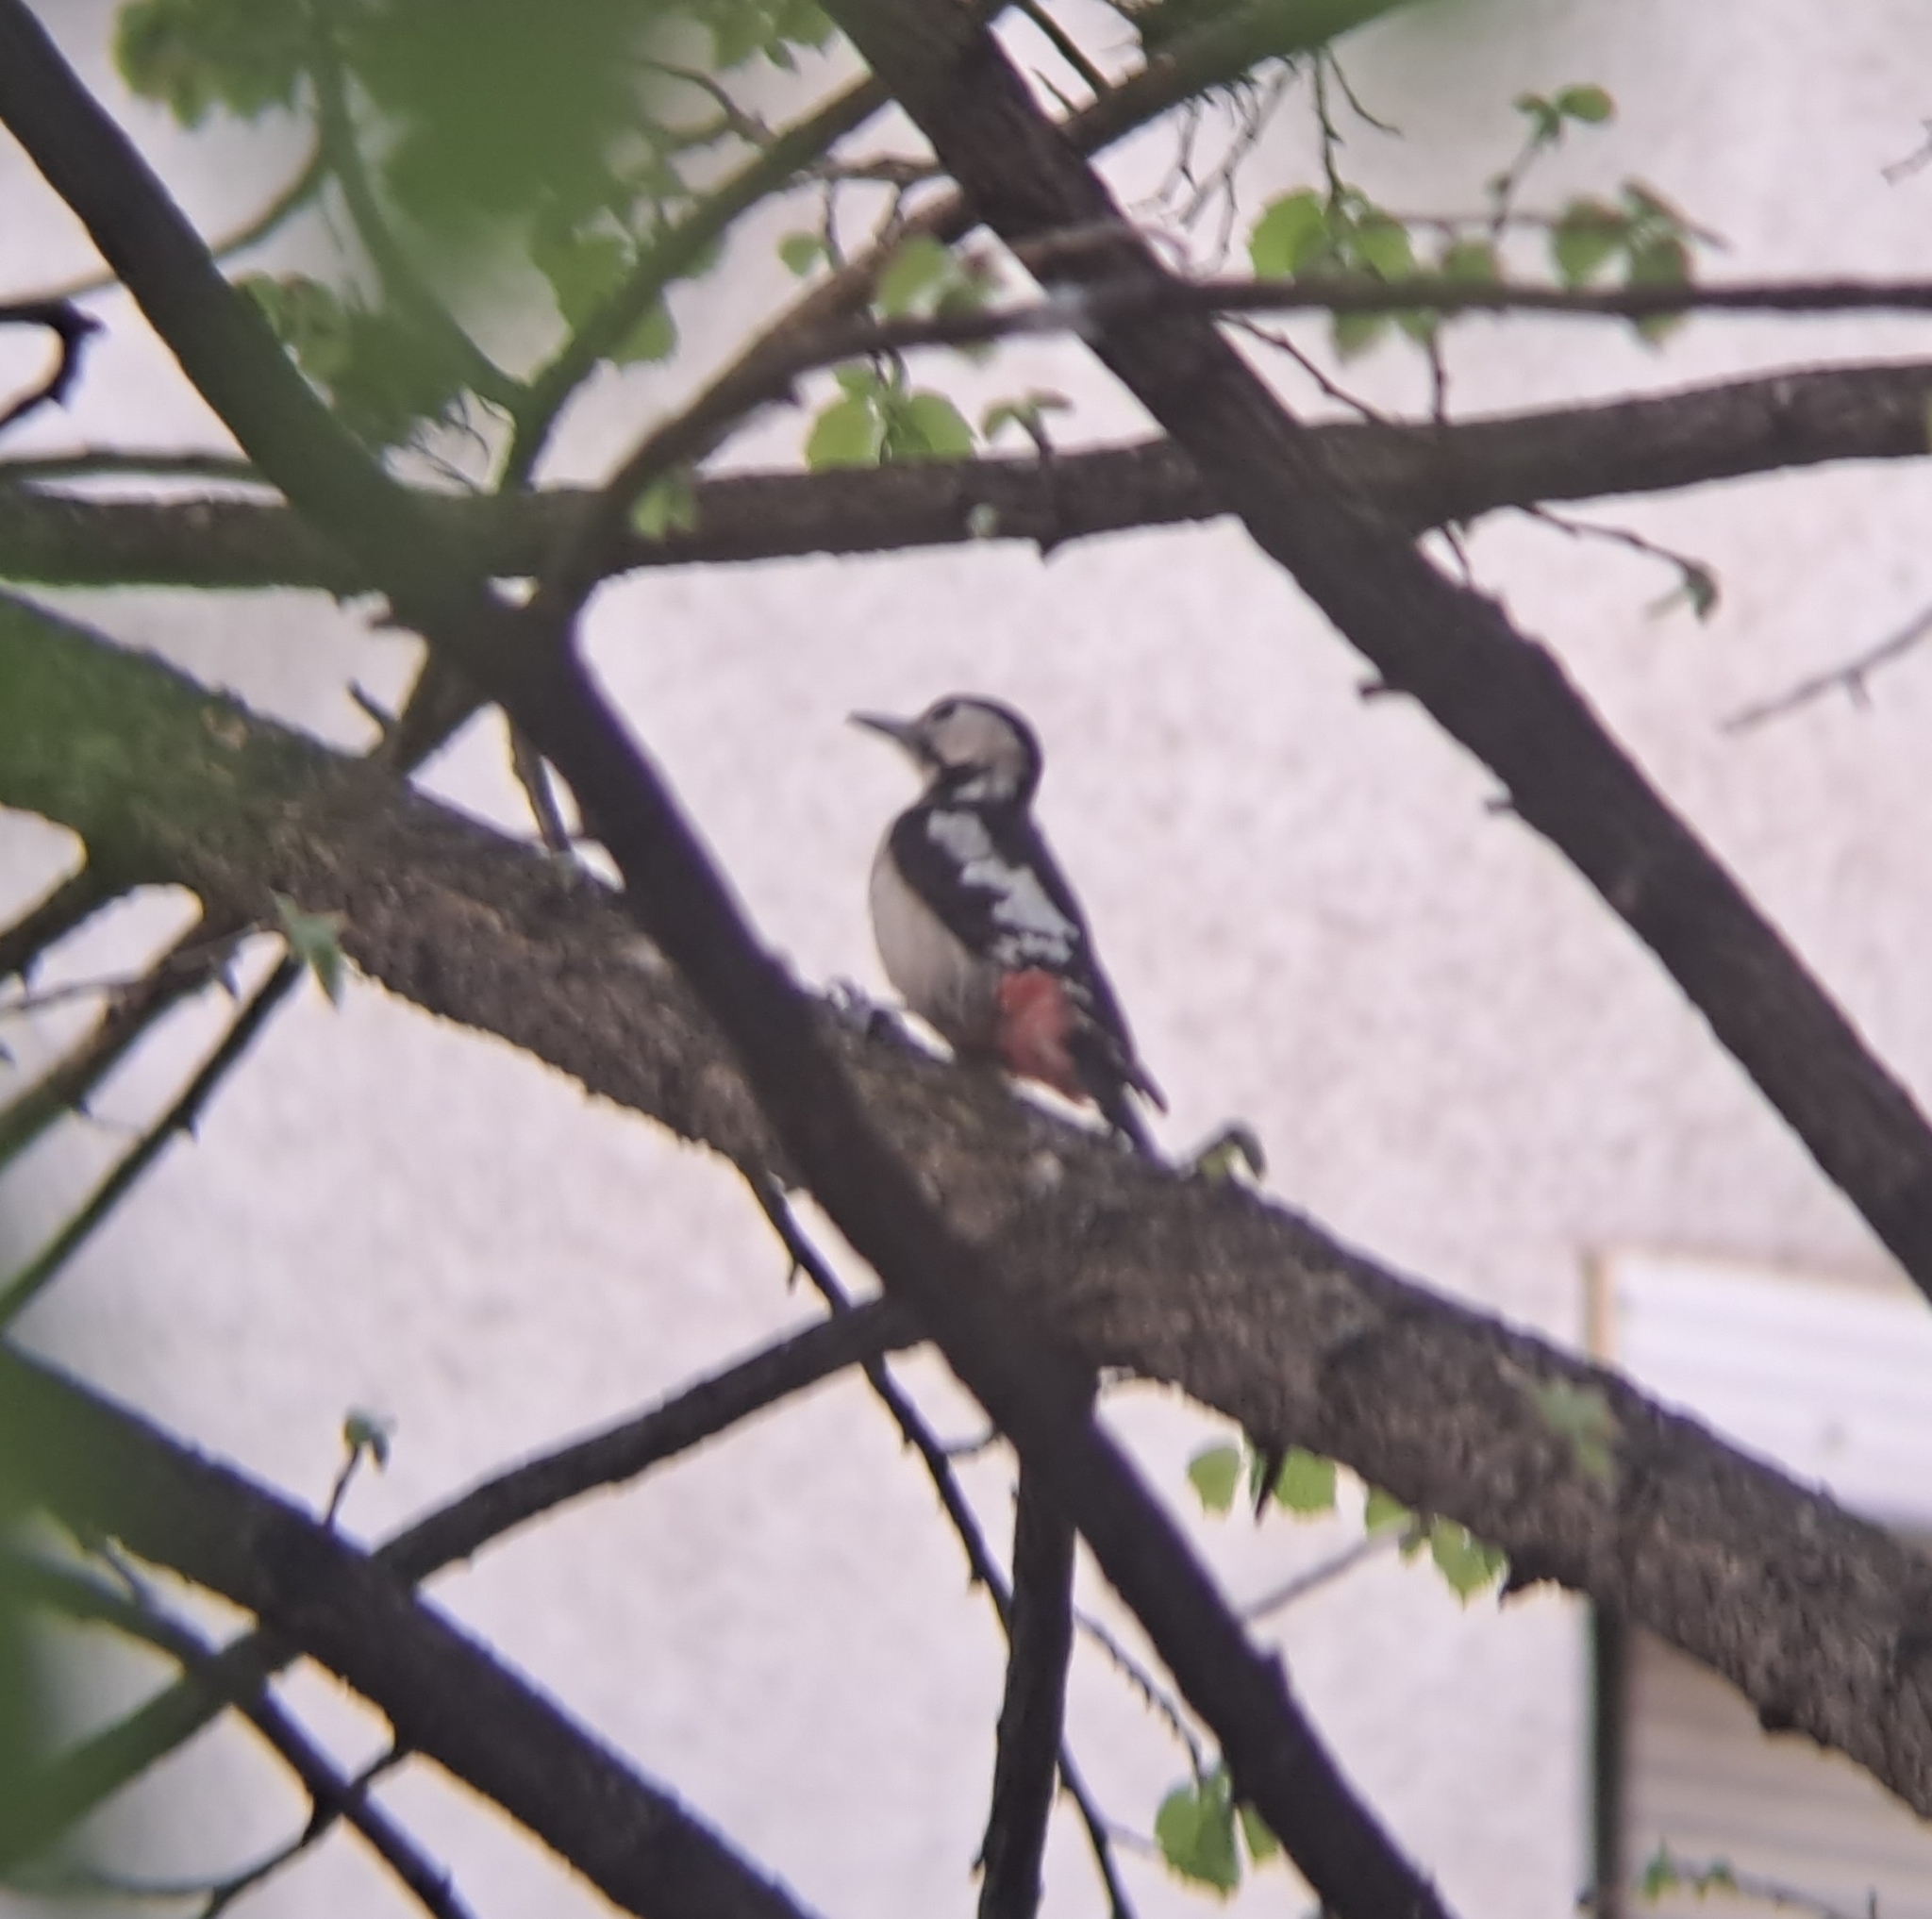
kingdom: Animalia
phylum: Chordata
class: Aves
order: Piciformes
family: Picidae
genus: Dendrocopos
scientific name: Dendrocopos syriacus
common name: Syrian woodpecker
